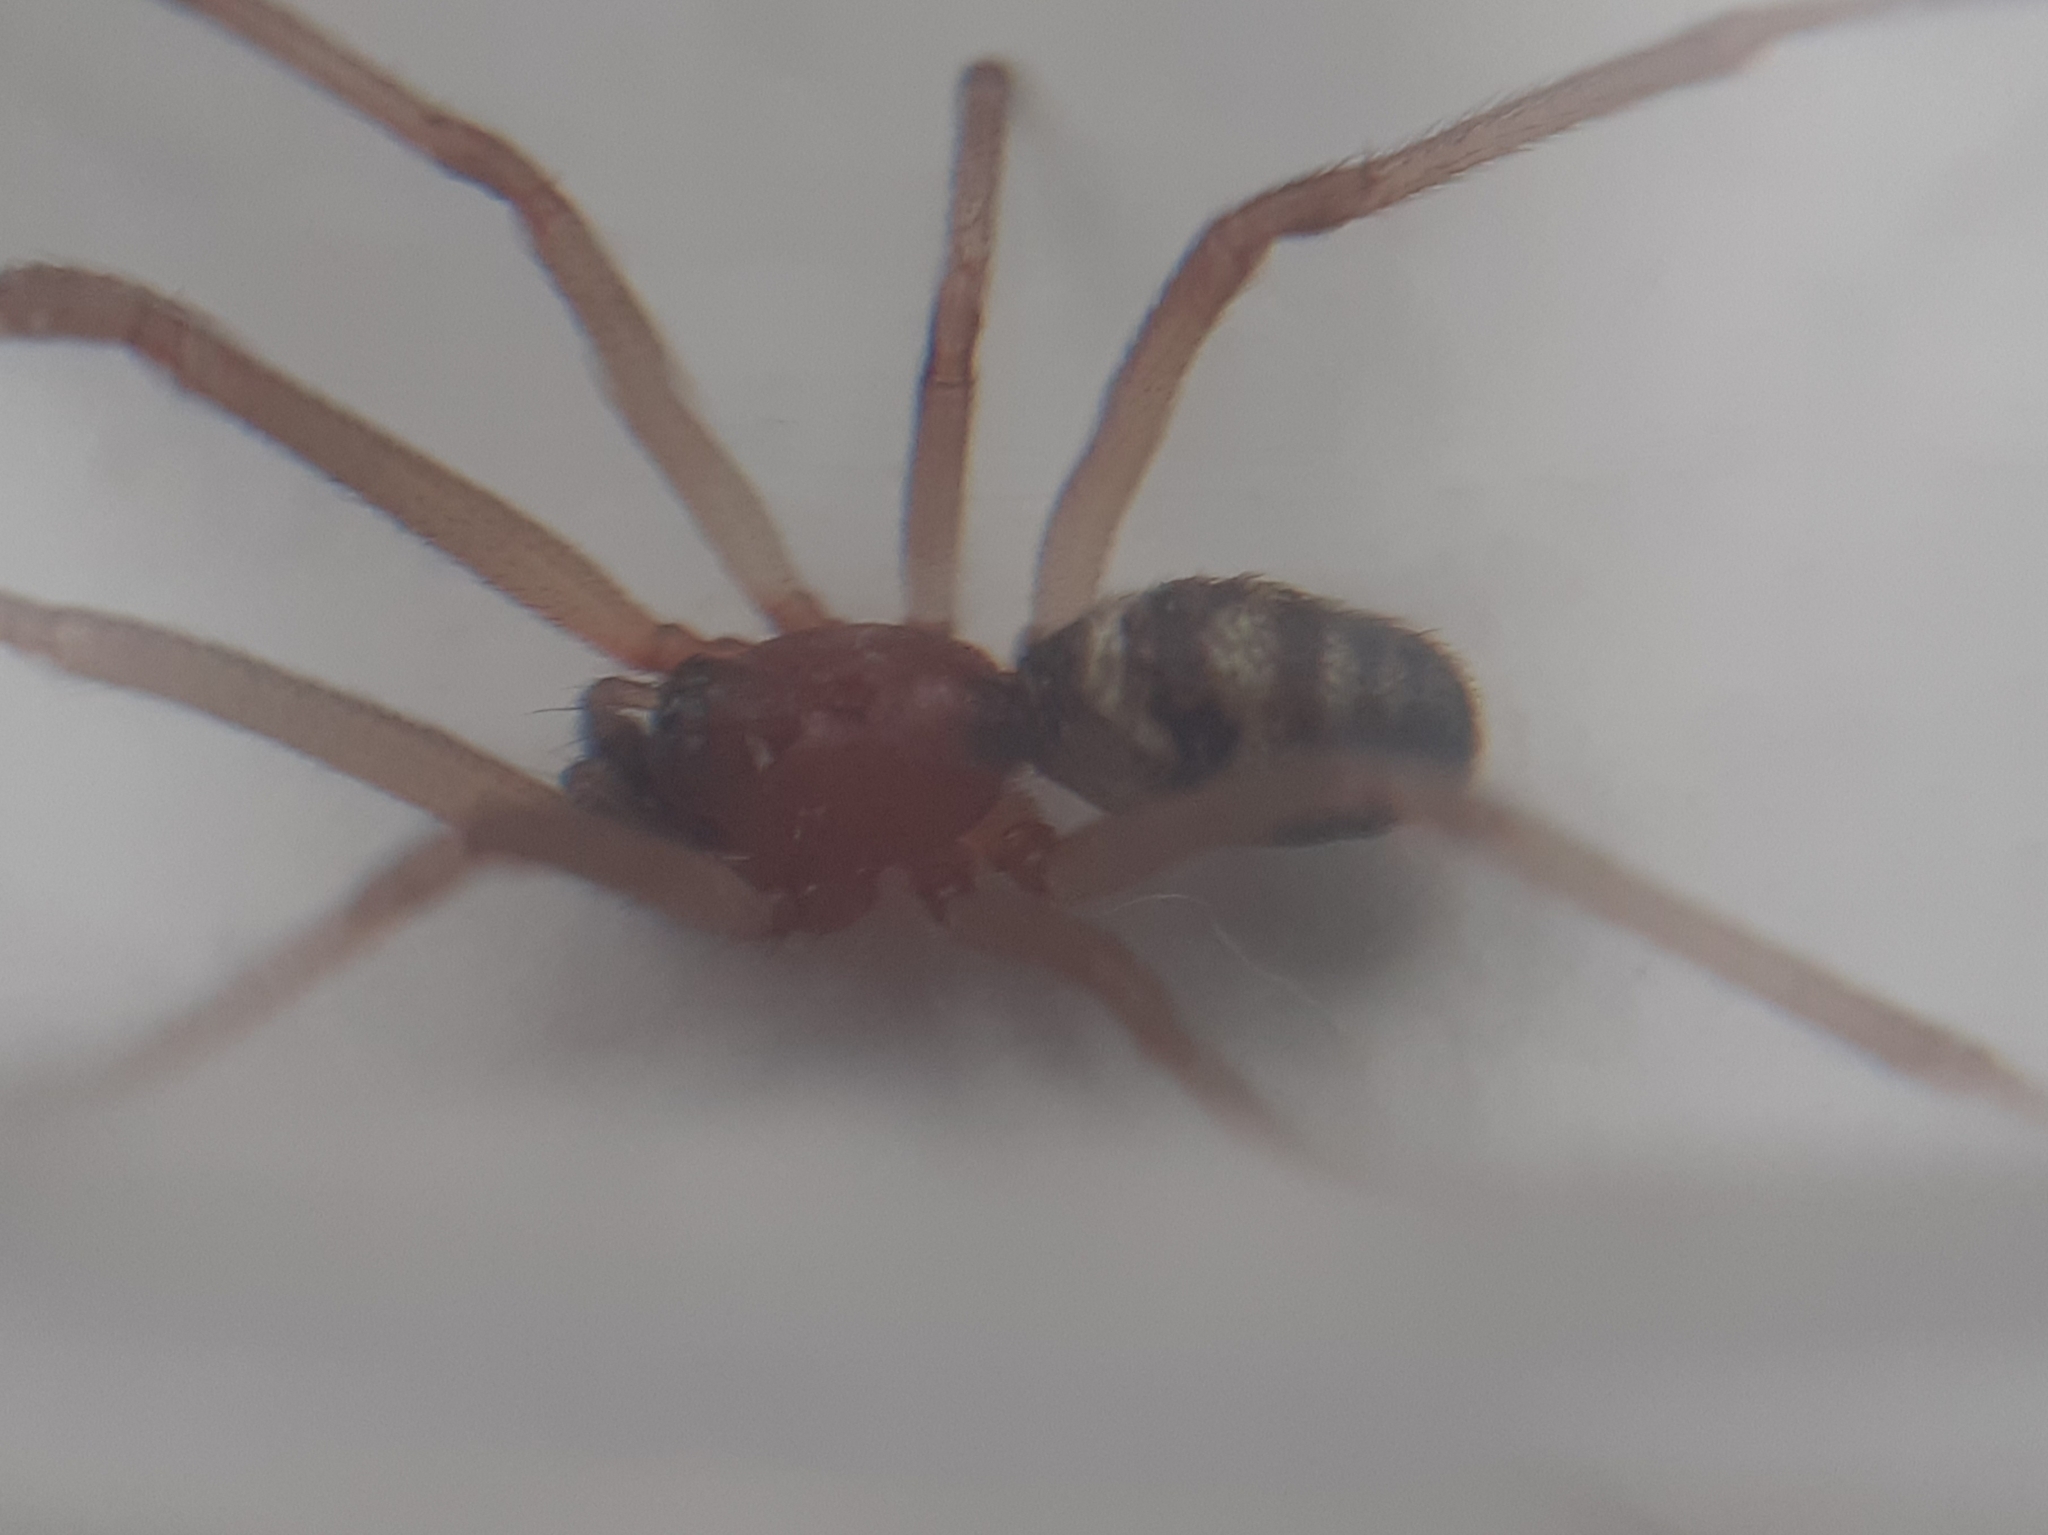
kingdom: Animalia
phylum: Arthropoda
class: Arachnida
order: Araneae
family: Theridiidae
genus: Steatoda
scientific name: Steatoda grossa
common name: False black widow
